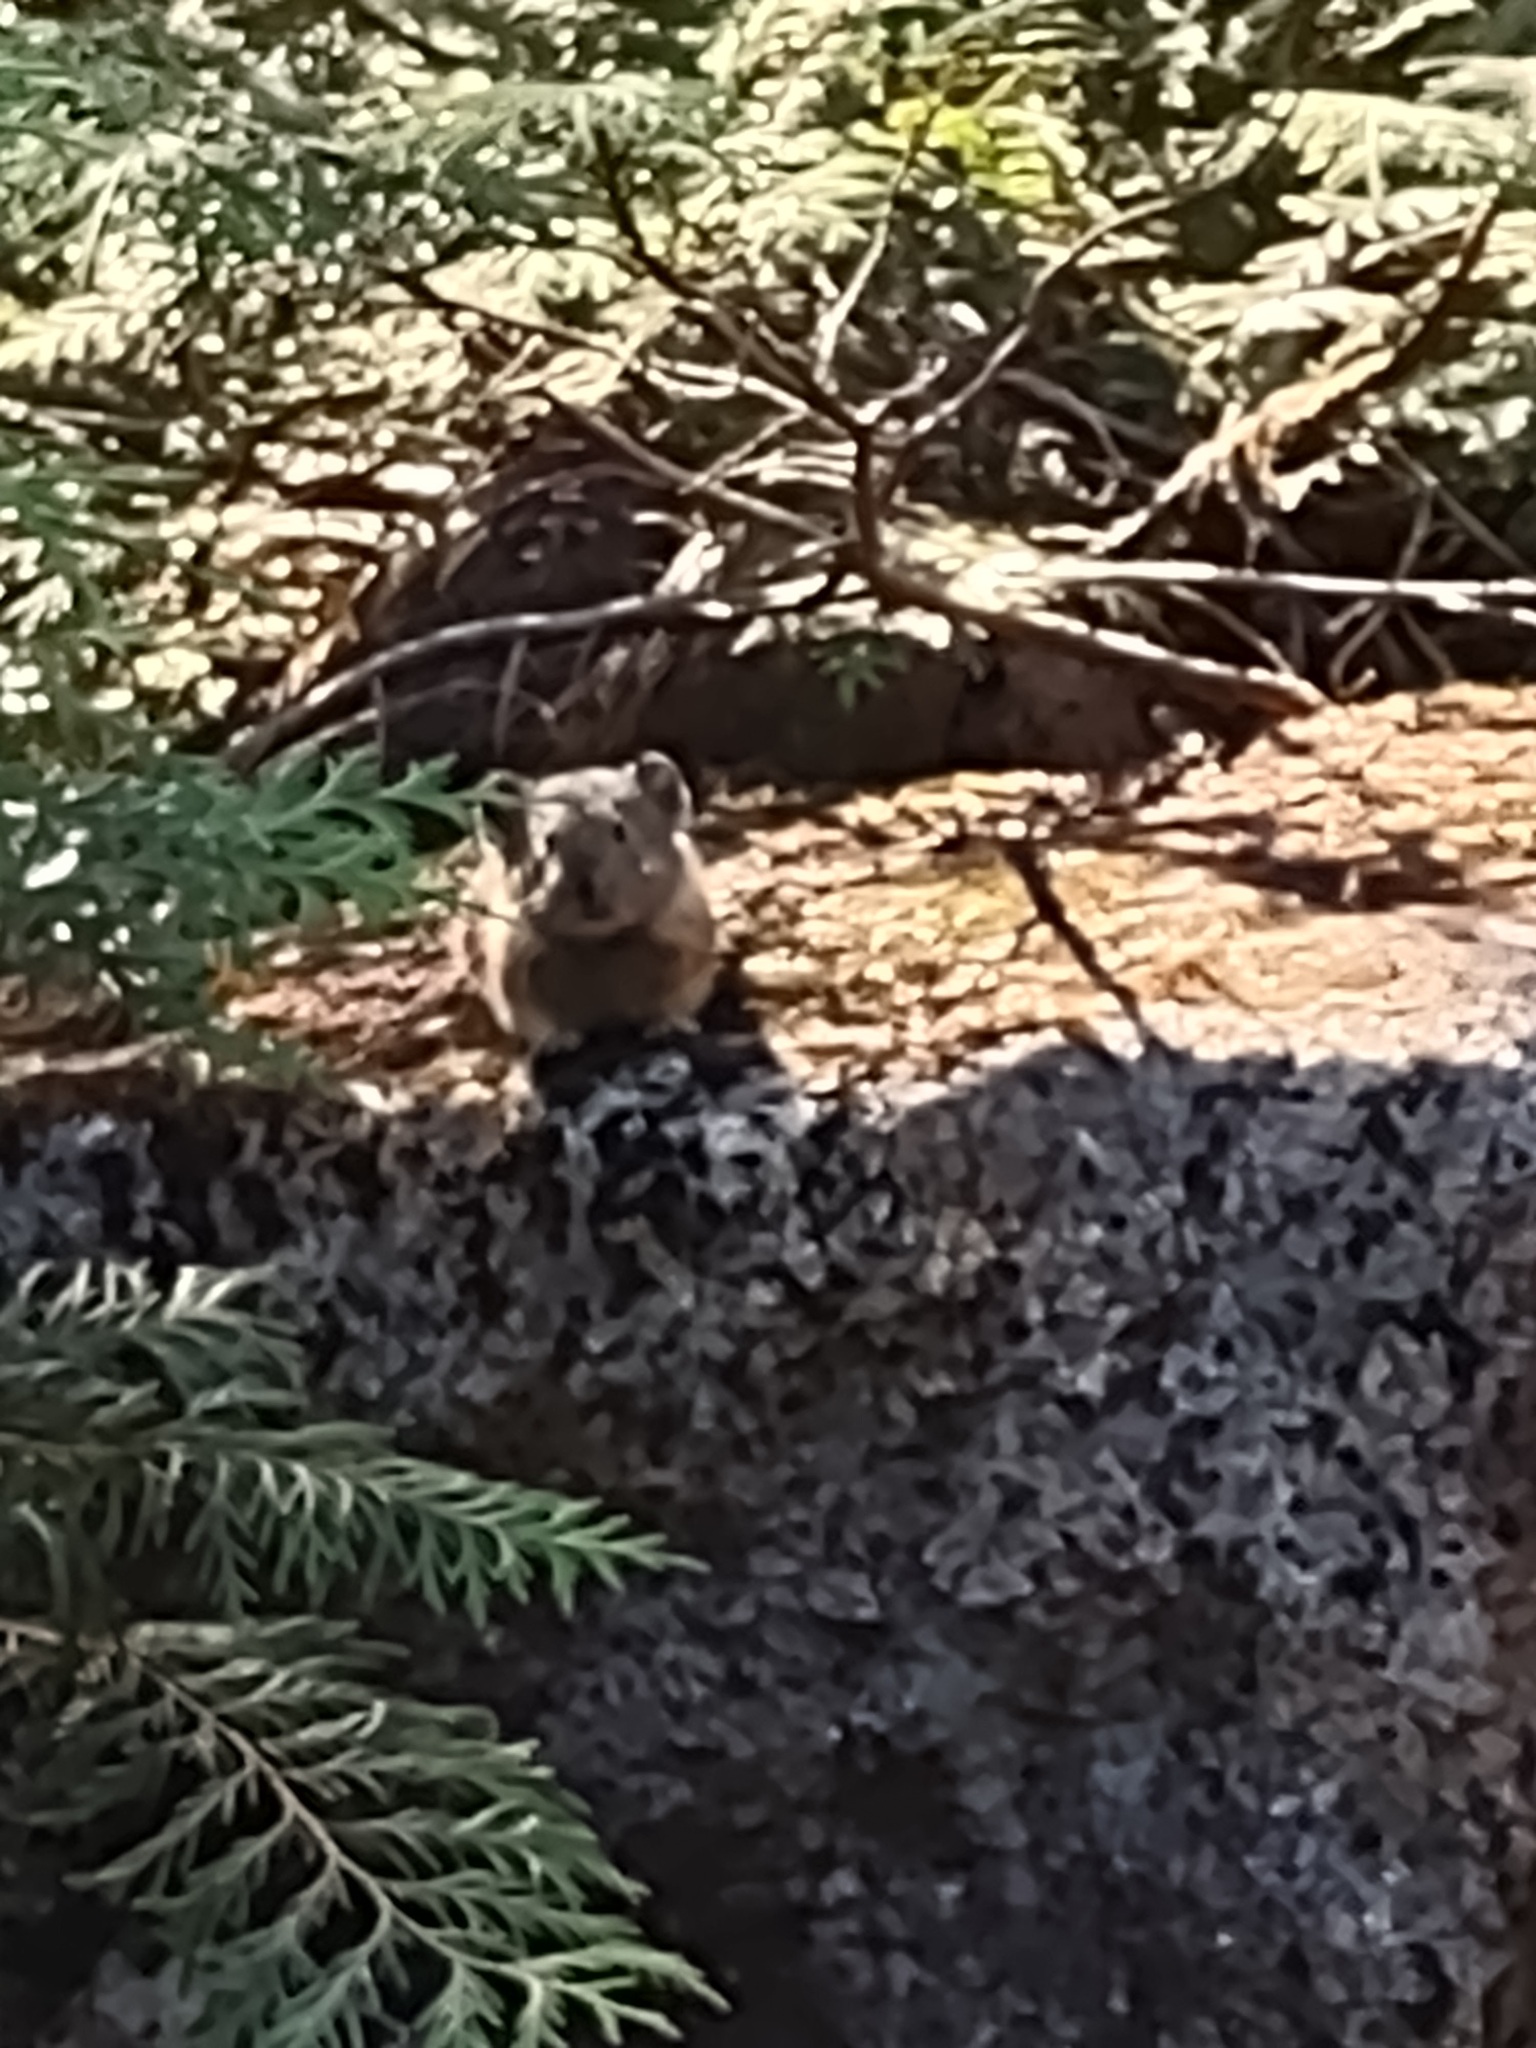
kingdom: Animalia
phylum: Chordata
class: Mammalia
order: Lagomorpha
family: Ochotonidae
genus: Ochotona
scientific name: Ochotona princeps
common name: American pika
